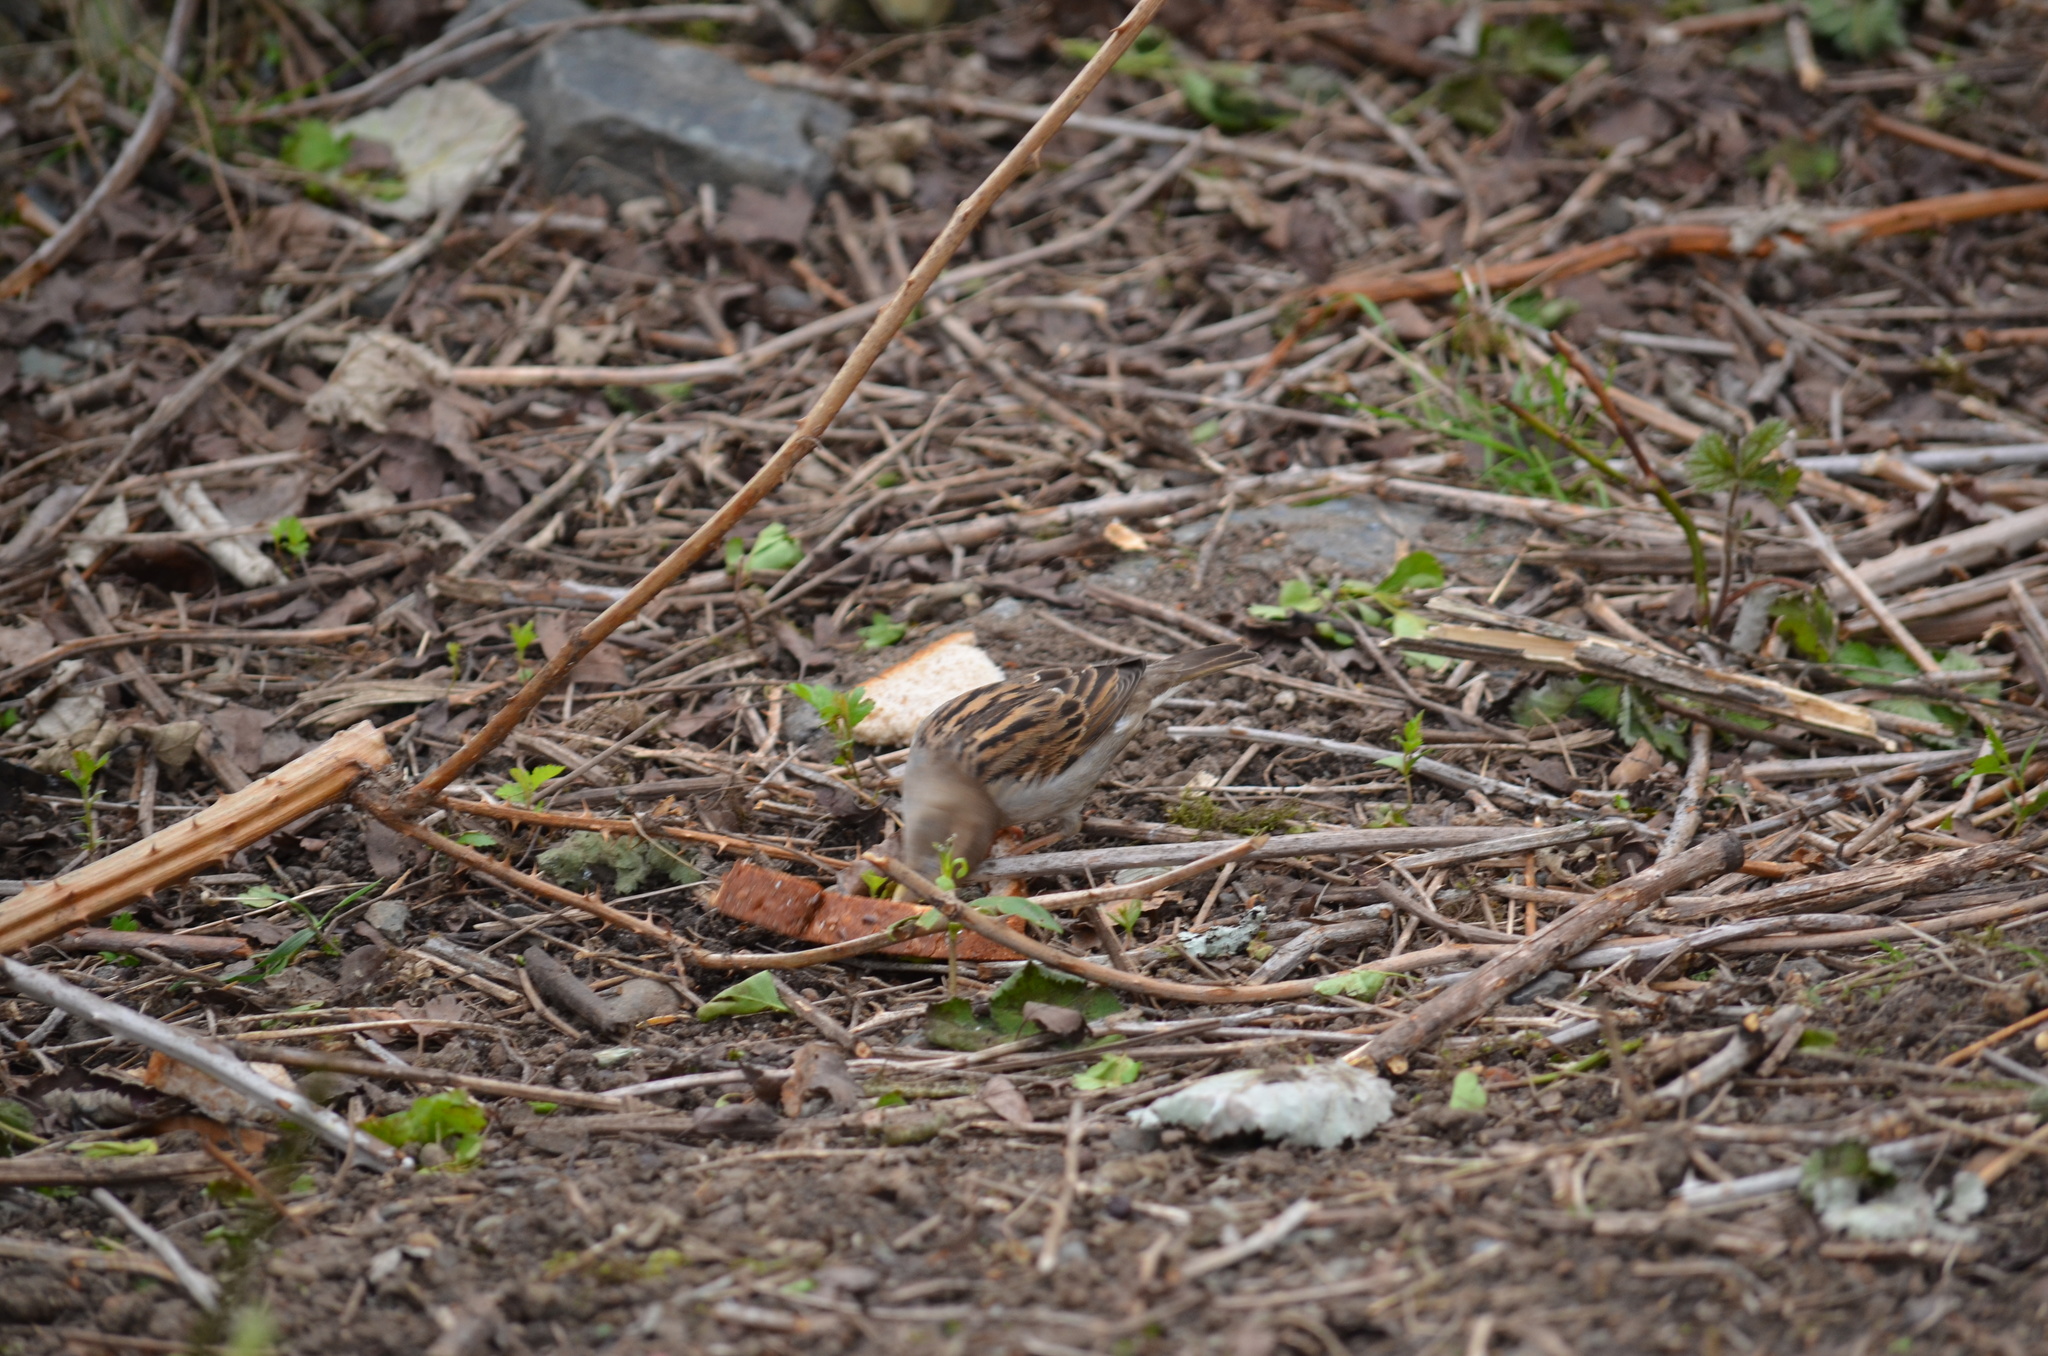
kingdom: Animalia
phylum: Chordata
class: Aves
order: Passeriformes
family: Passeridae
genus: Passer
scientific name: Passer domesticus
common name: House sparrow
